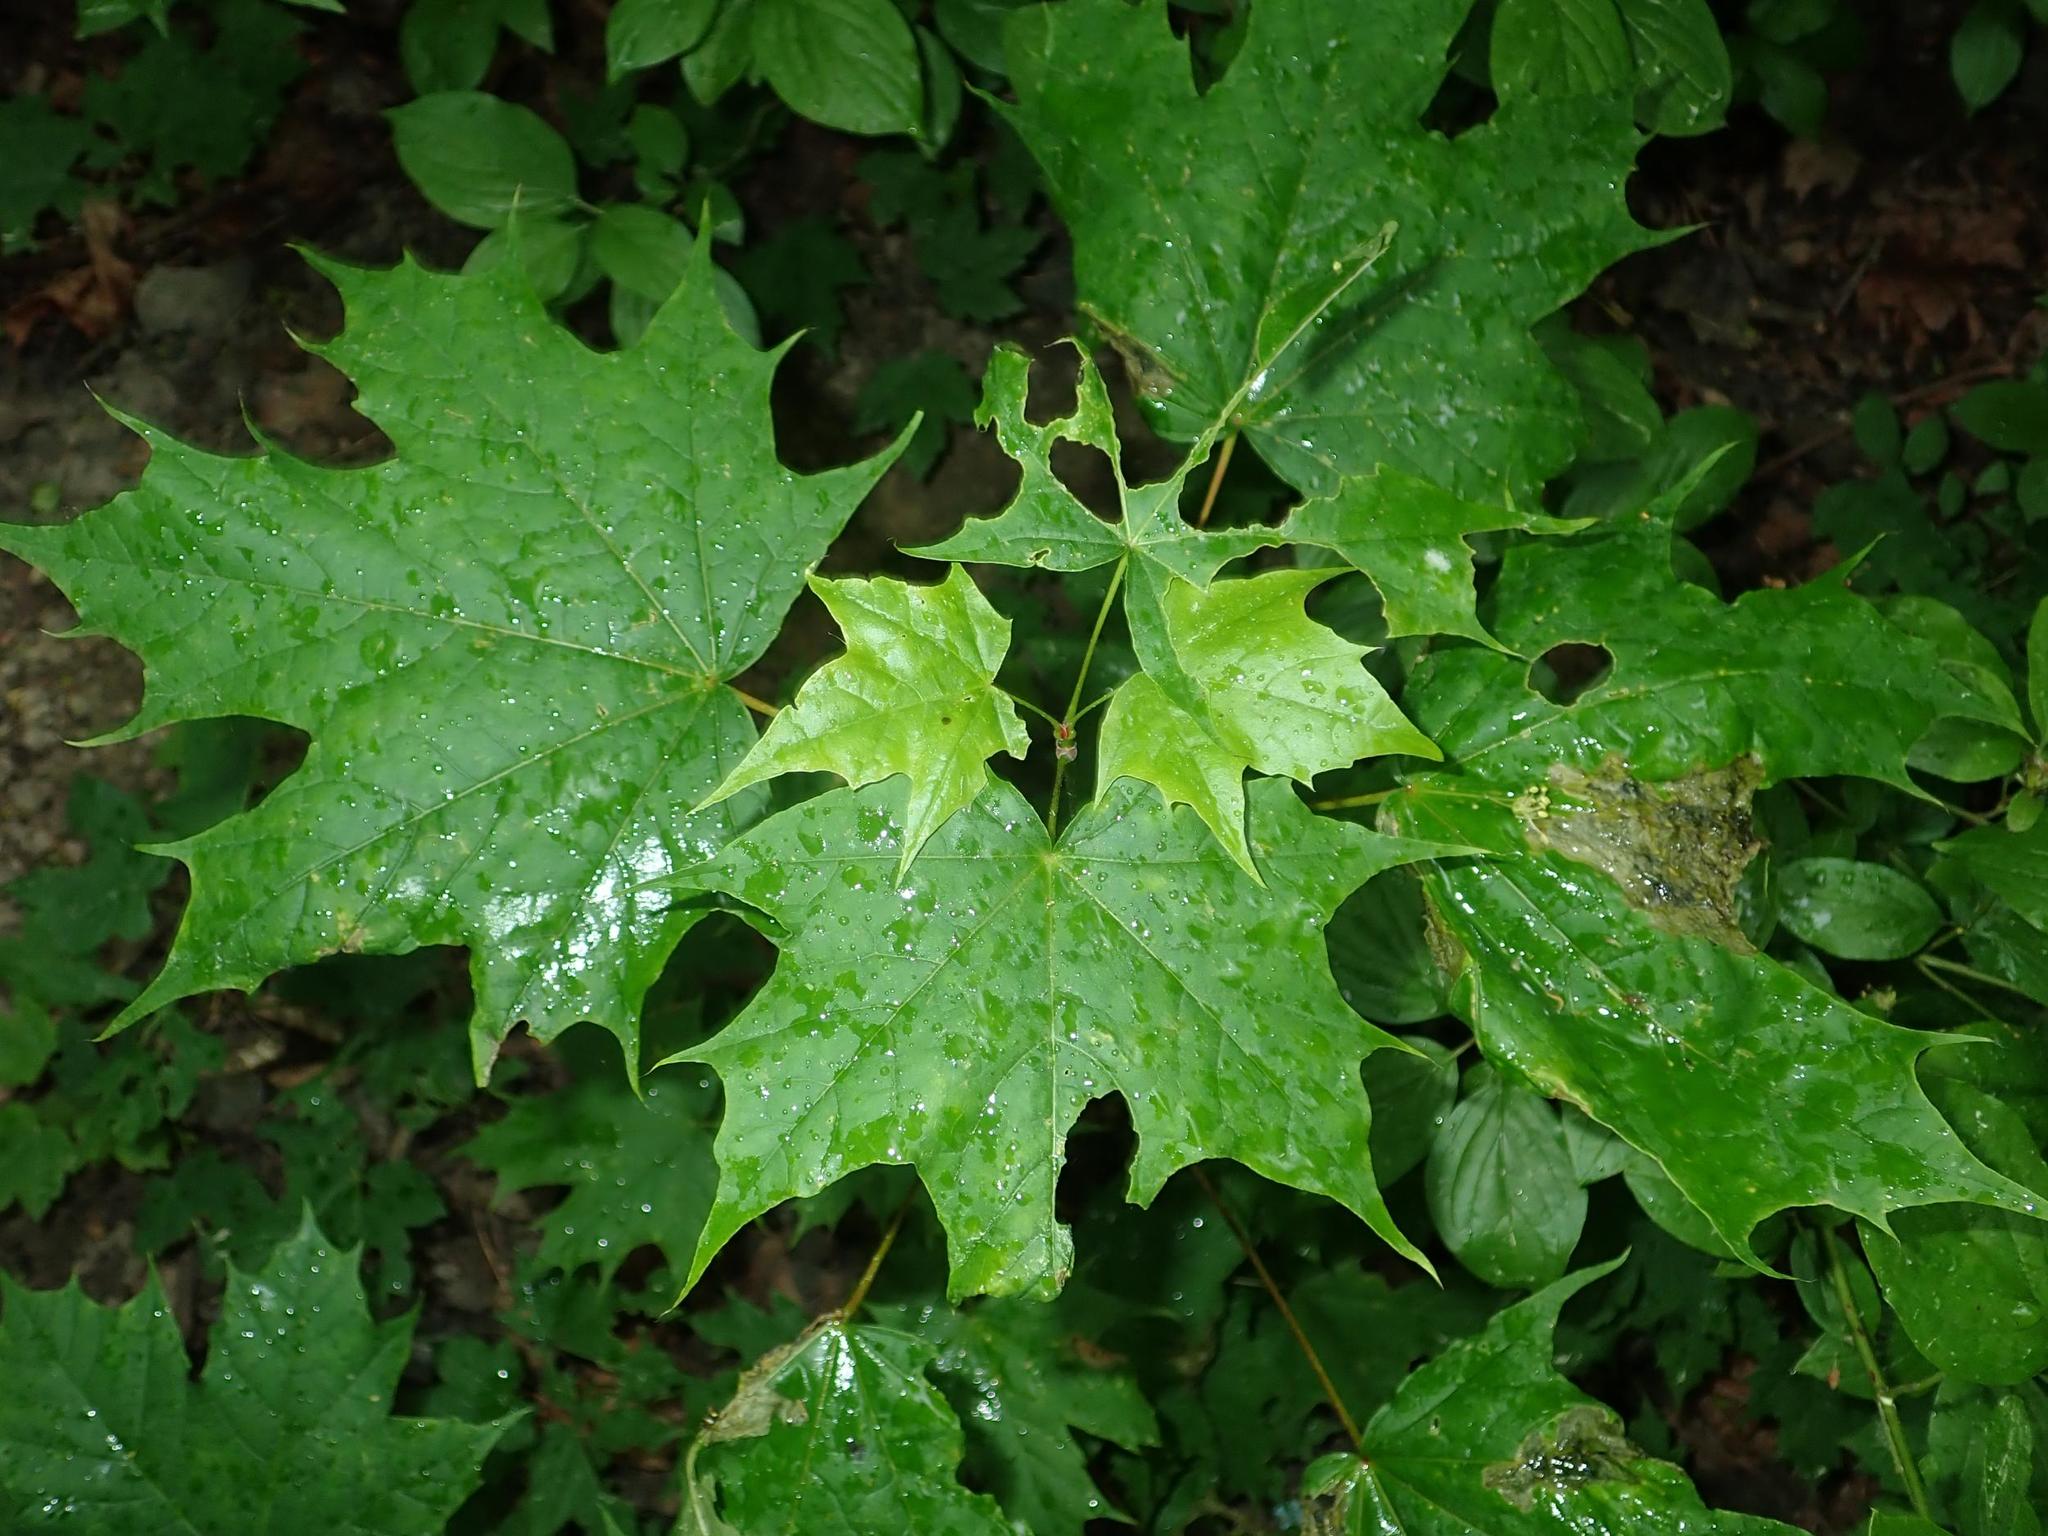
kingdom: Plantae
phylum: Tracheophyta
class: Magnoliopsida
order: Sapindales
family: Sapindaceae
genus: Acer
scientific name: Acer platanoides
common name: Norway maple
